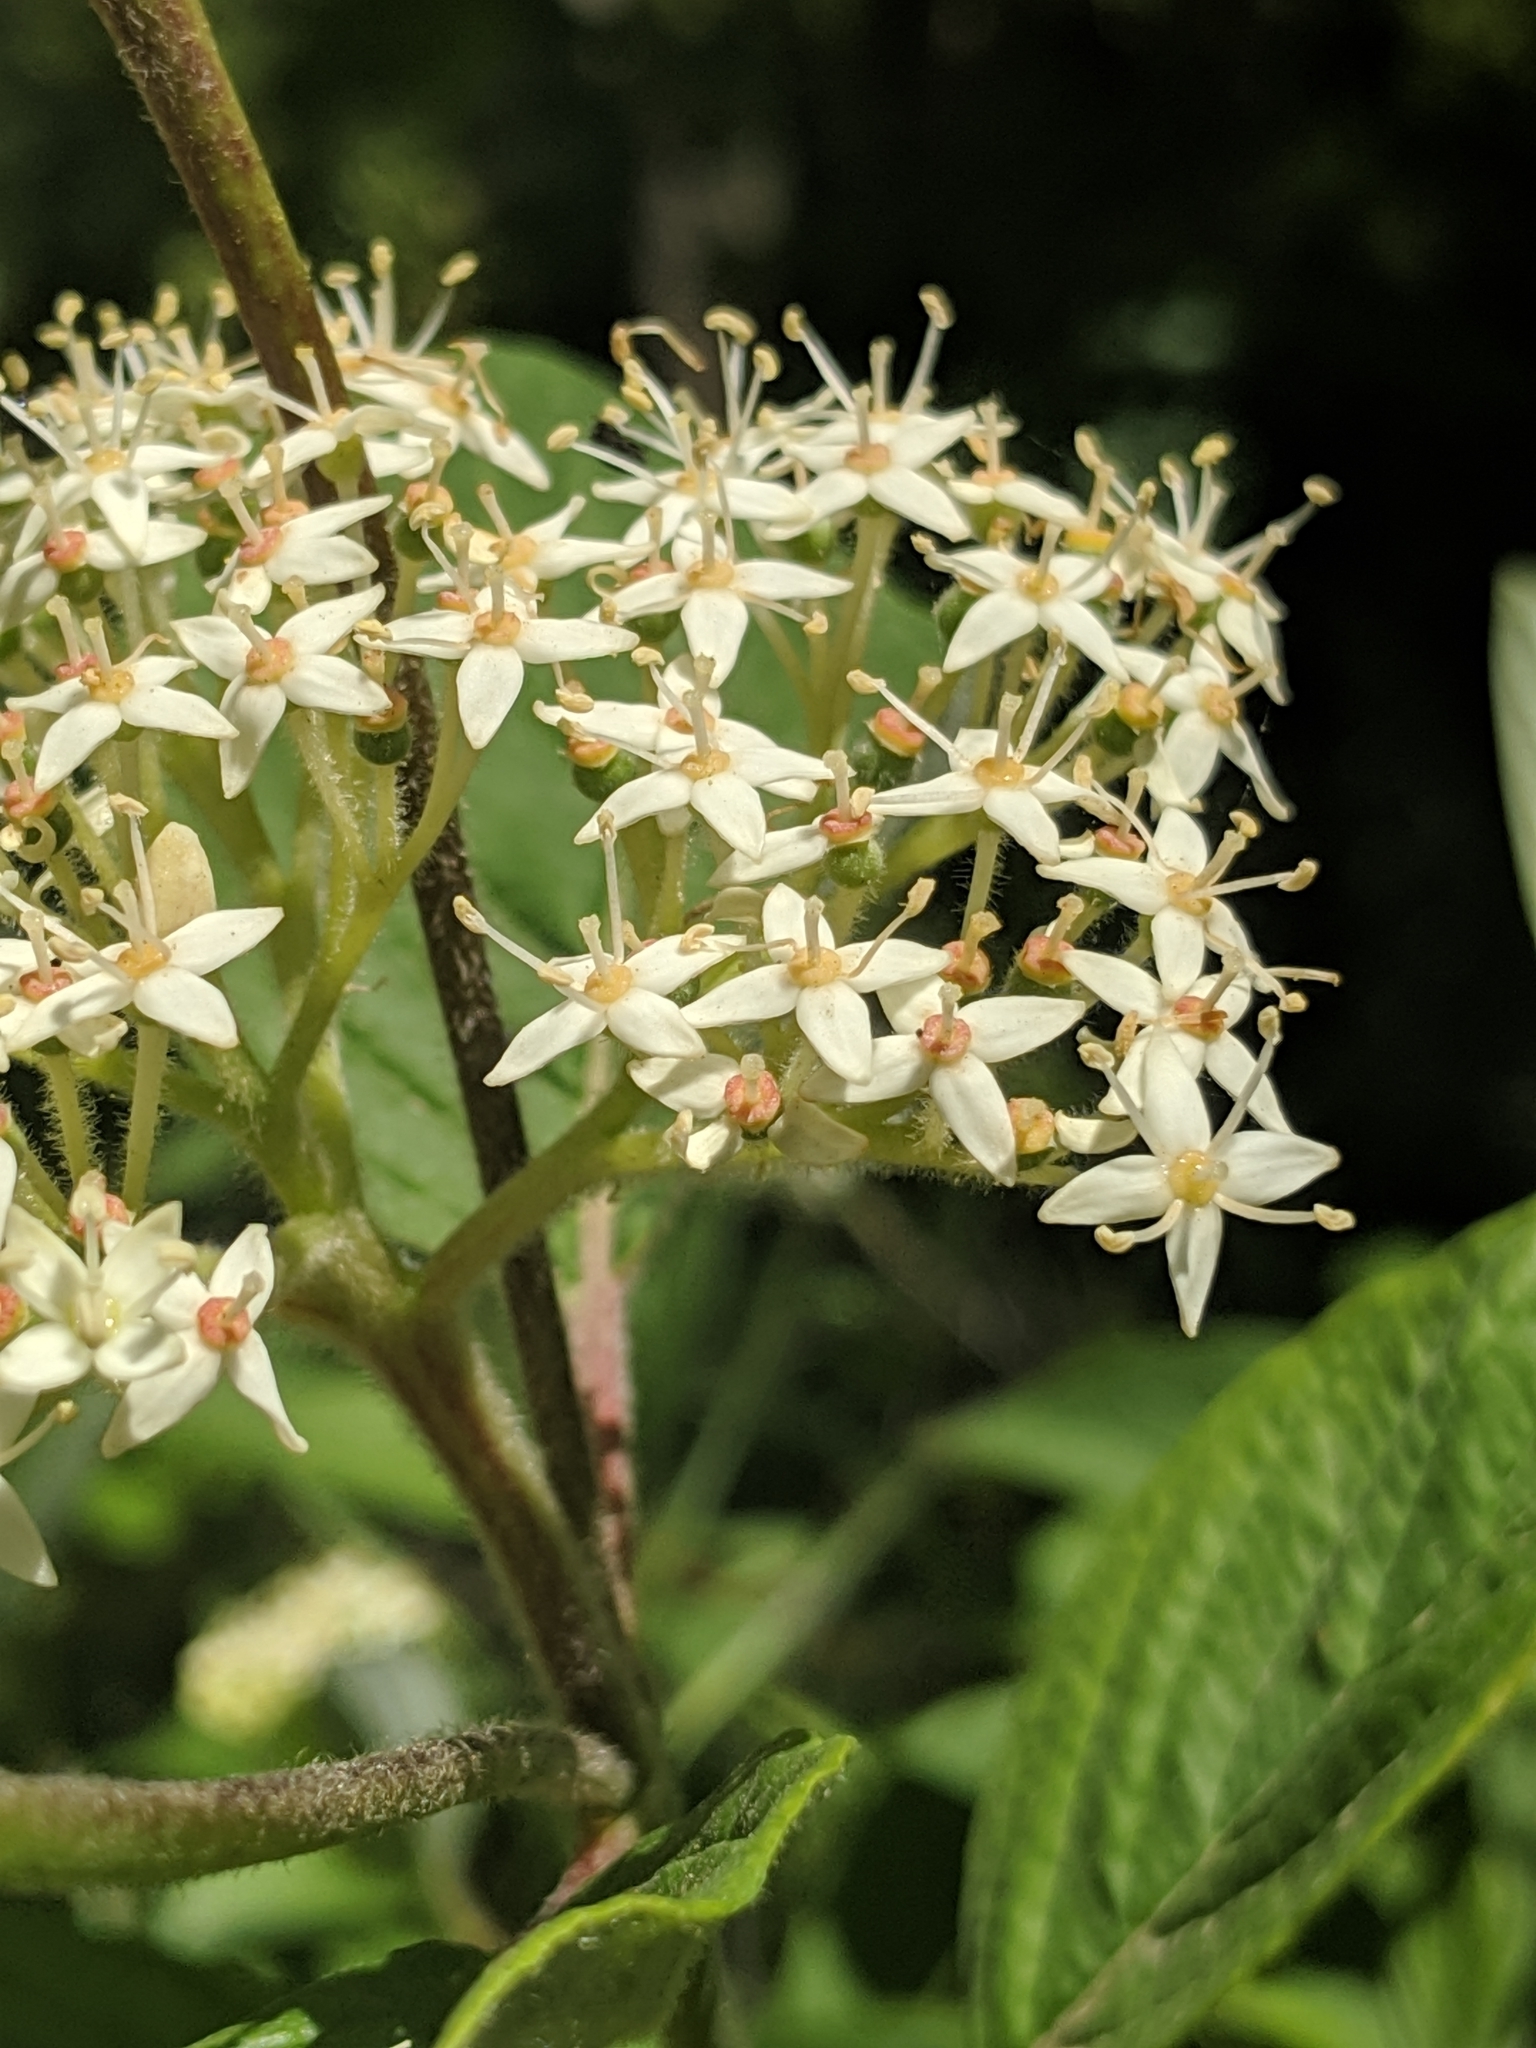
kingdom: Plantae
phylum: Tracheophyta
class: Magnoliopsida
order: Cornales
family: Cornaceae
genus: Cornus
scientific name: Cornus sericea
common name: Red-osier dogwood
